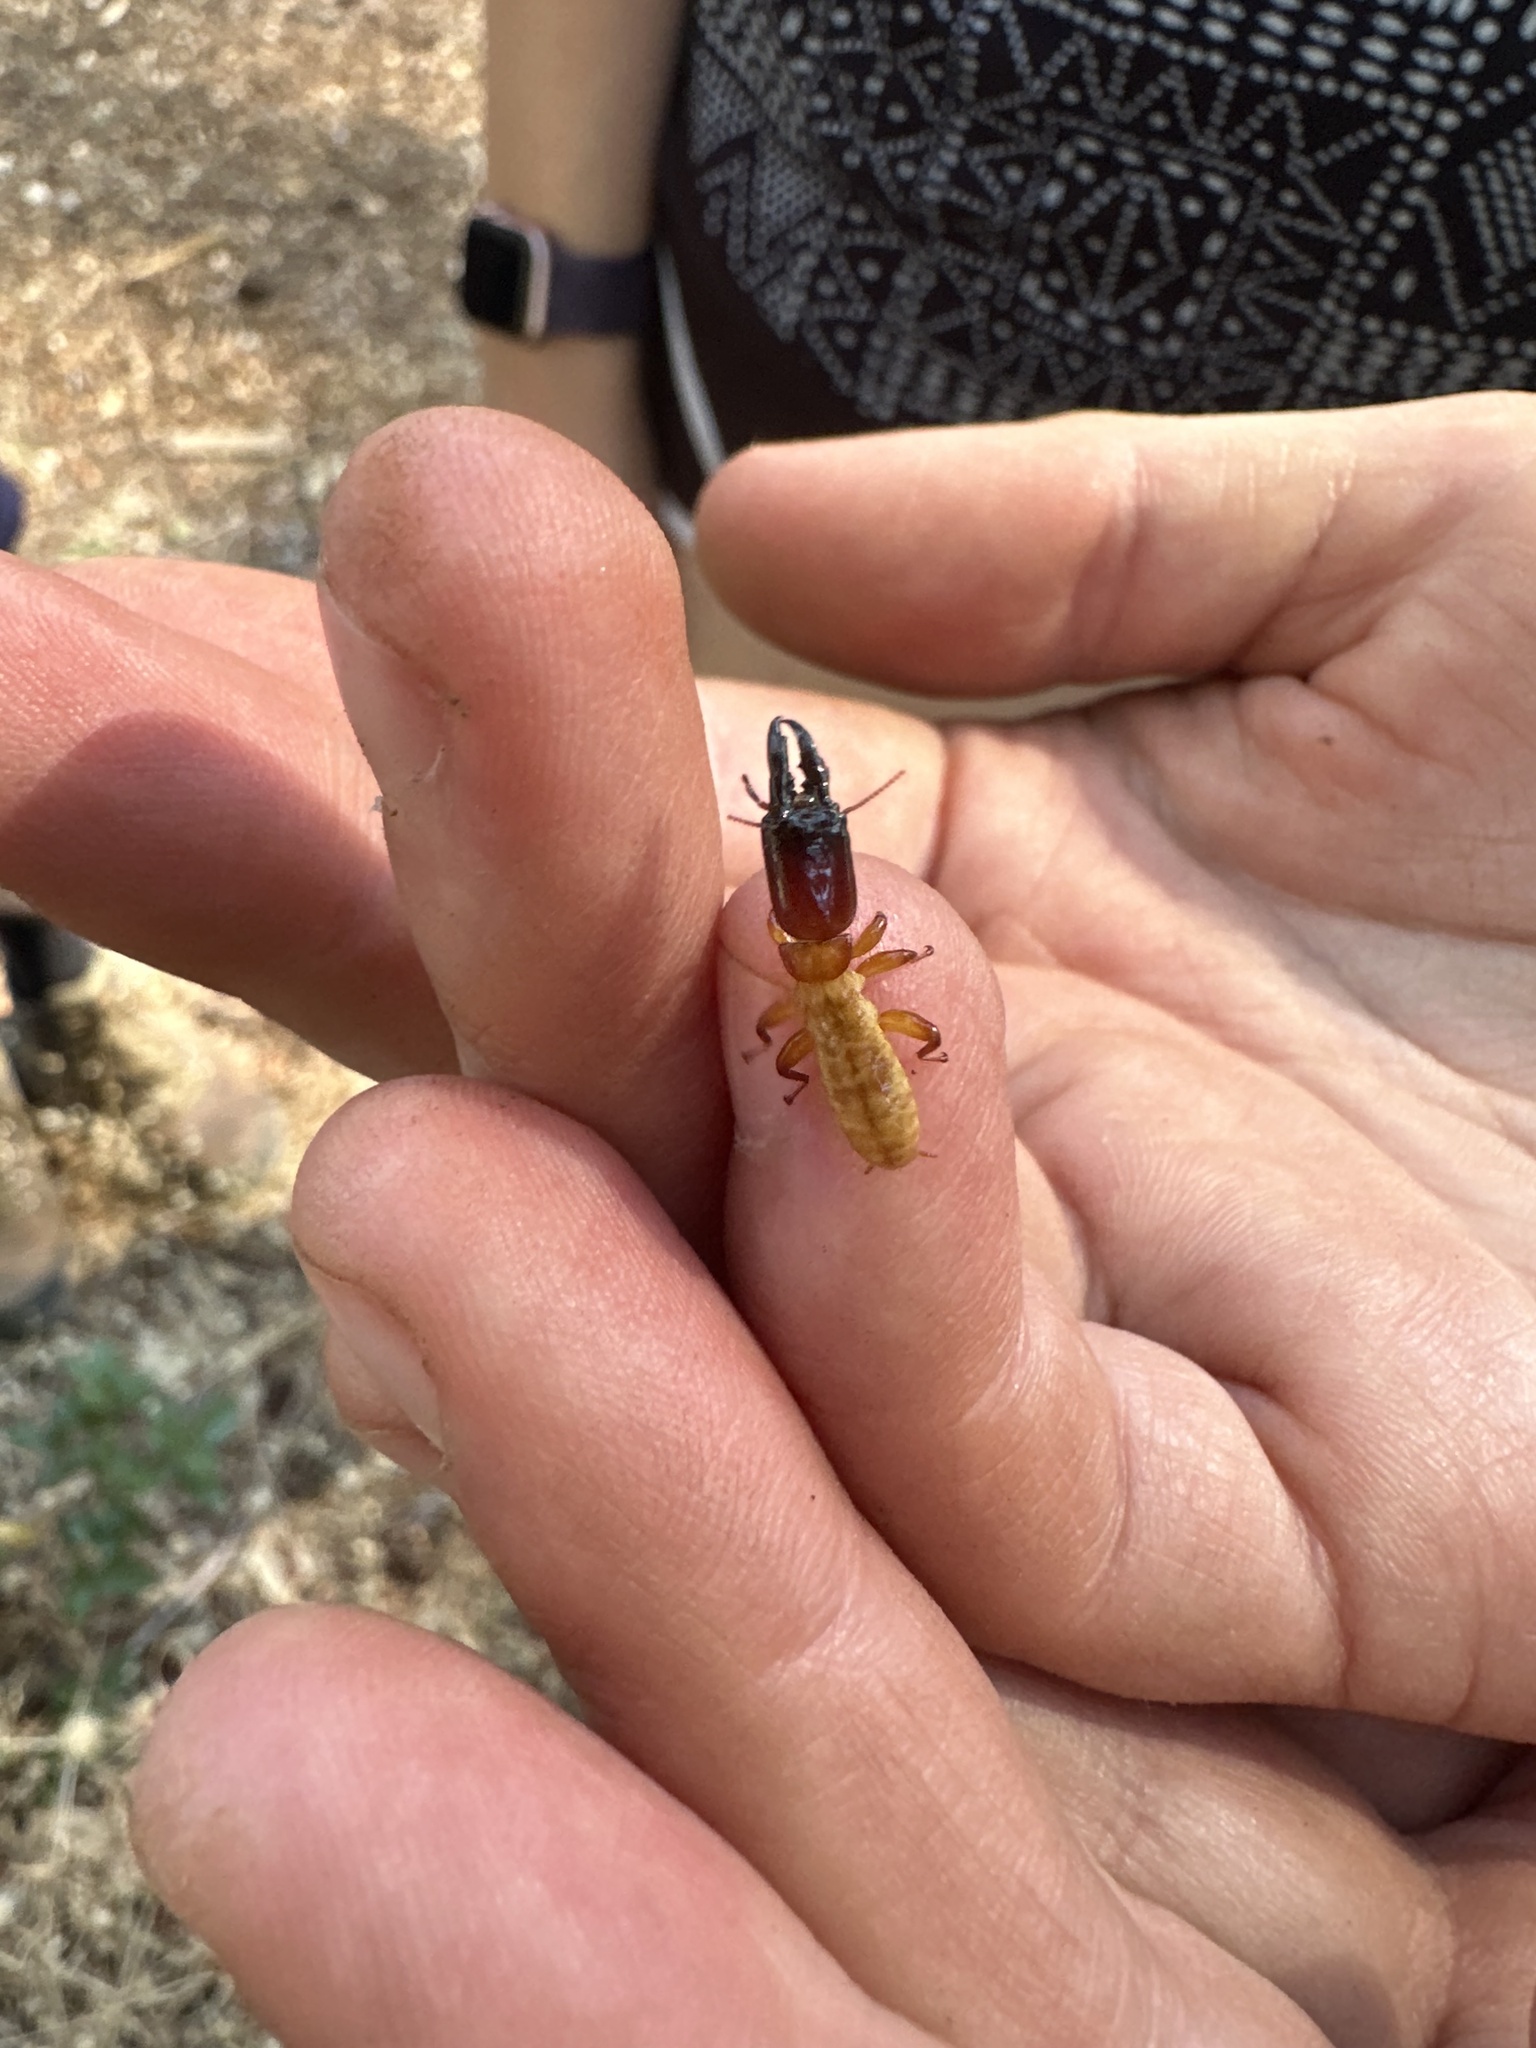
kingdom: Animalia
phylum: Arthropoda
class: Insecta
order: Blattodea
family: Archotermopsidae
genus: Zootermopsis
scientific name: Zootermopsis nevadensis
